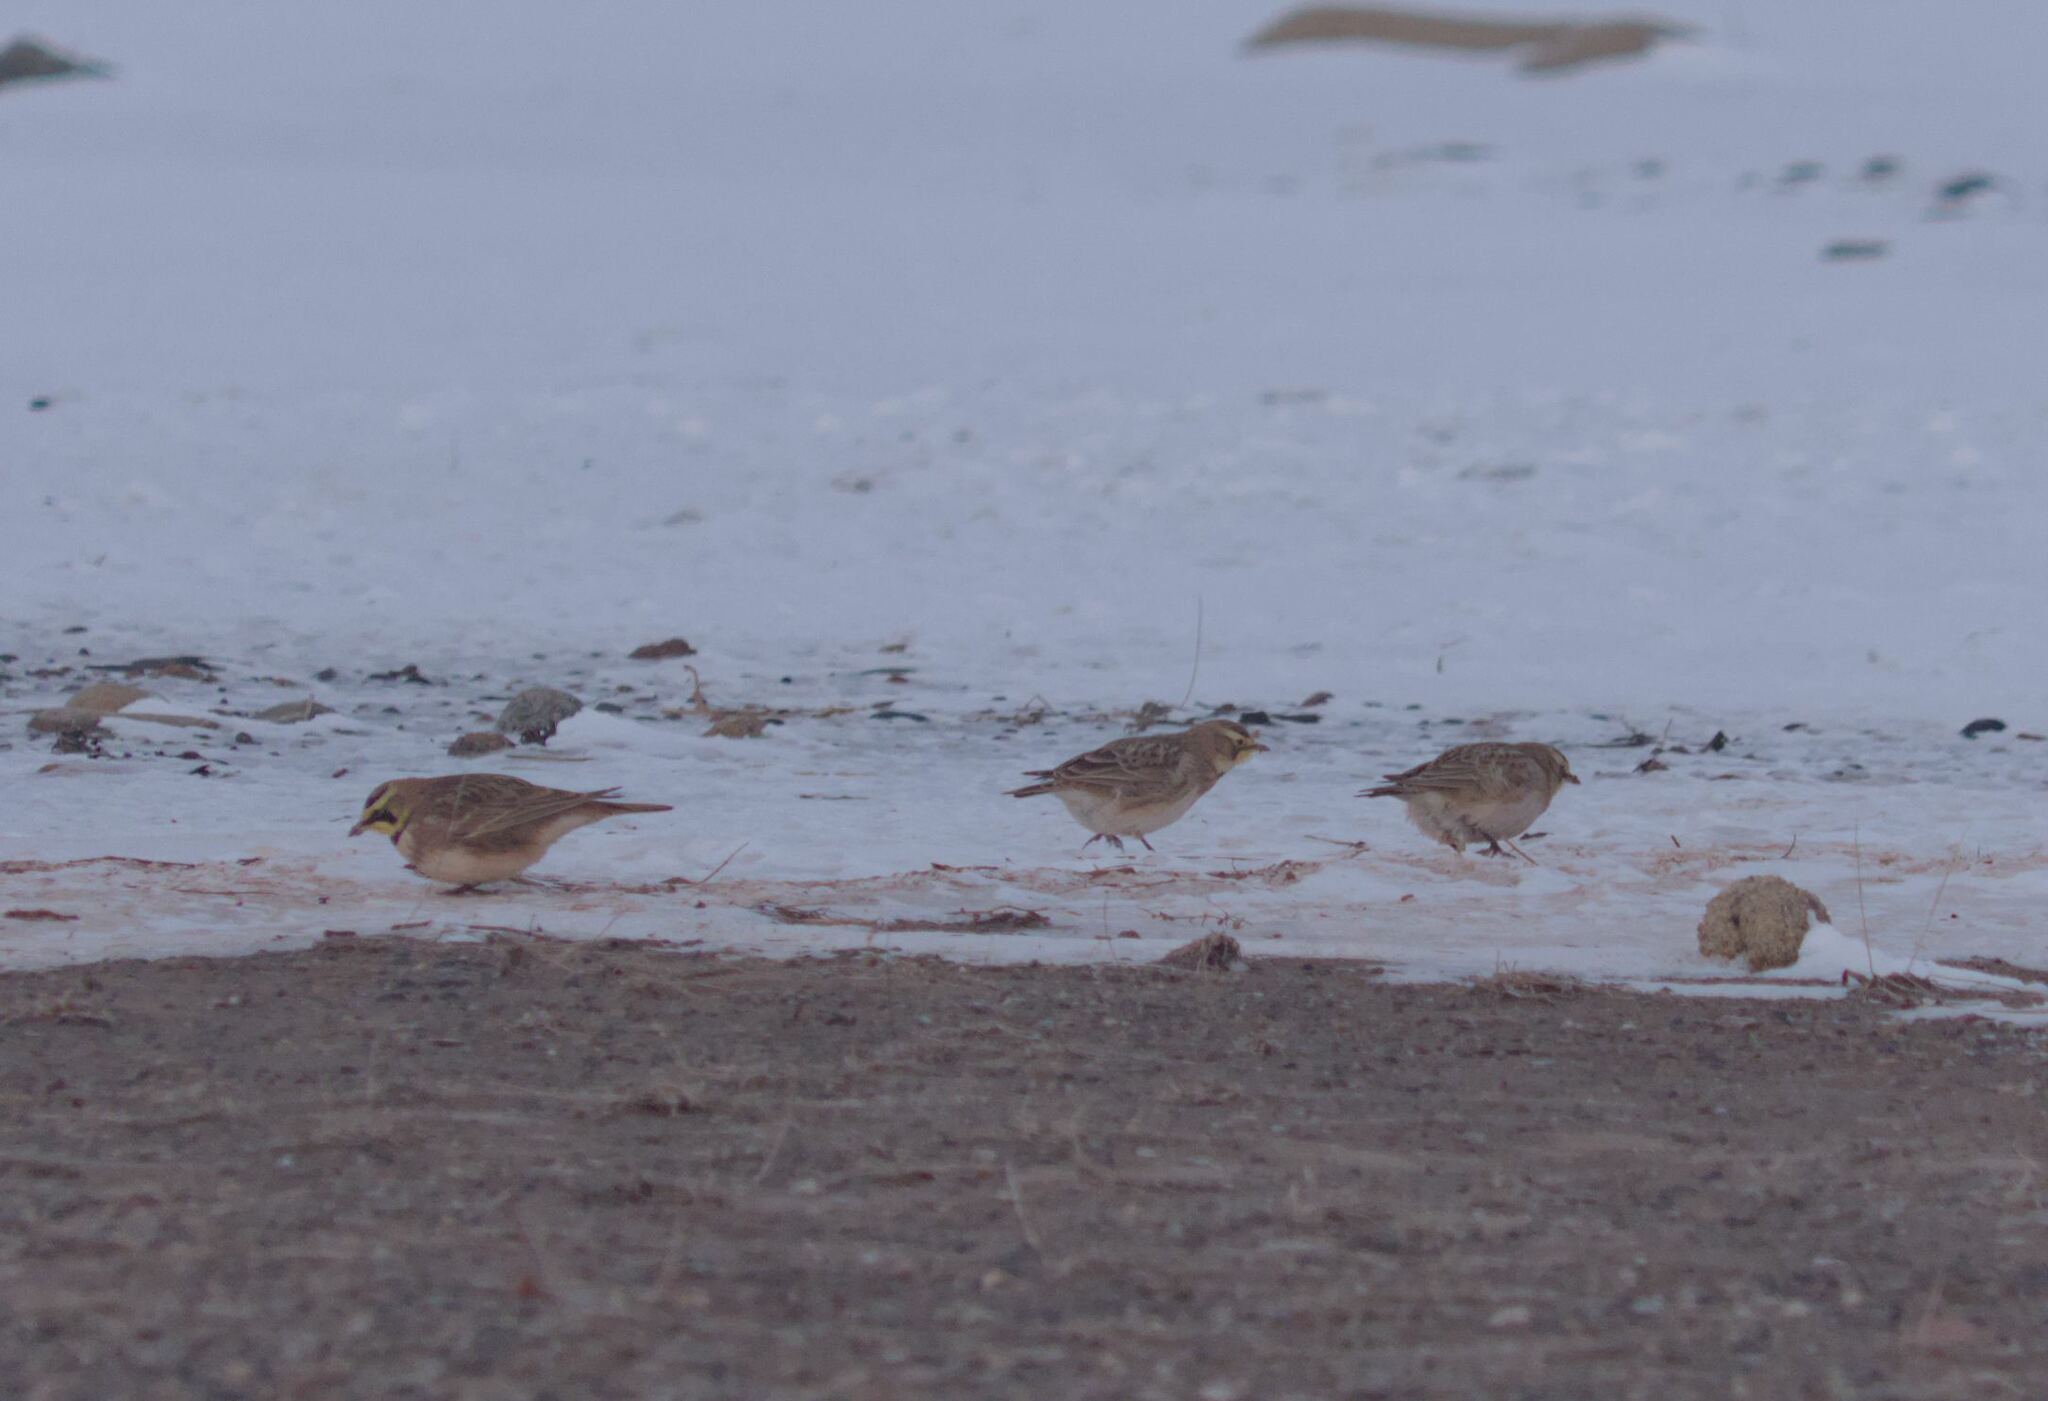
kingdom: Animalia
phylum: Chordata
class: Aves
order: Passeriformes
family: Alaudidae
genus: Eremophila
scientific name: Eremophila alpestris
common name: Horned lark
